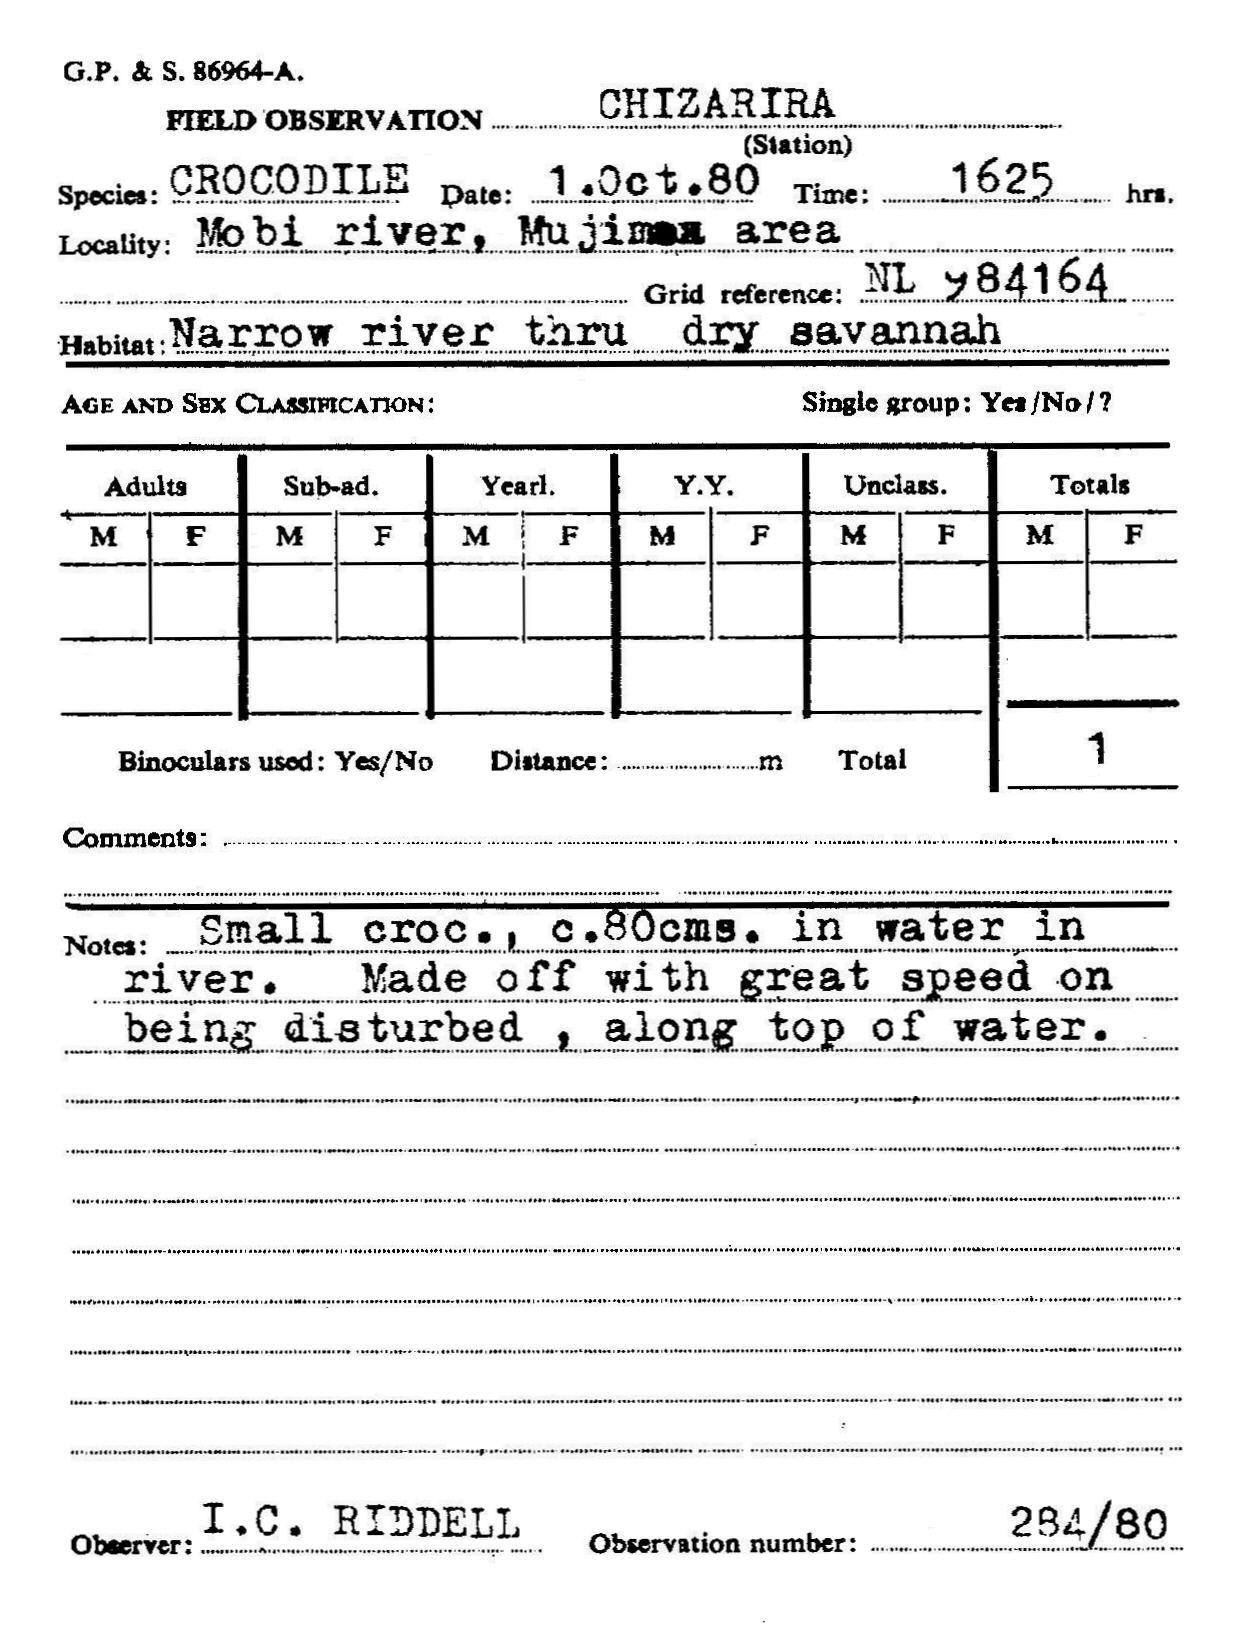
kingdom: Animalia
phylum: Chordata
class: Crocodylia
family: Crocodylidae
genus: Crocodylus
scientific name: Crocodylus niloticus
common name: Nile crocodile
